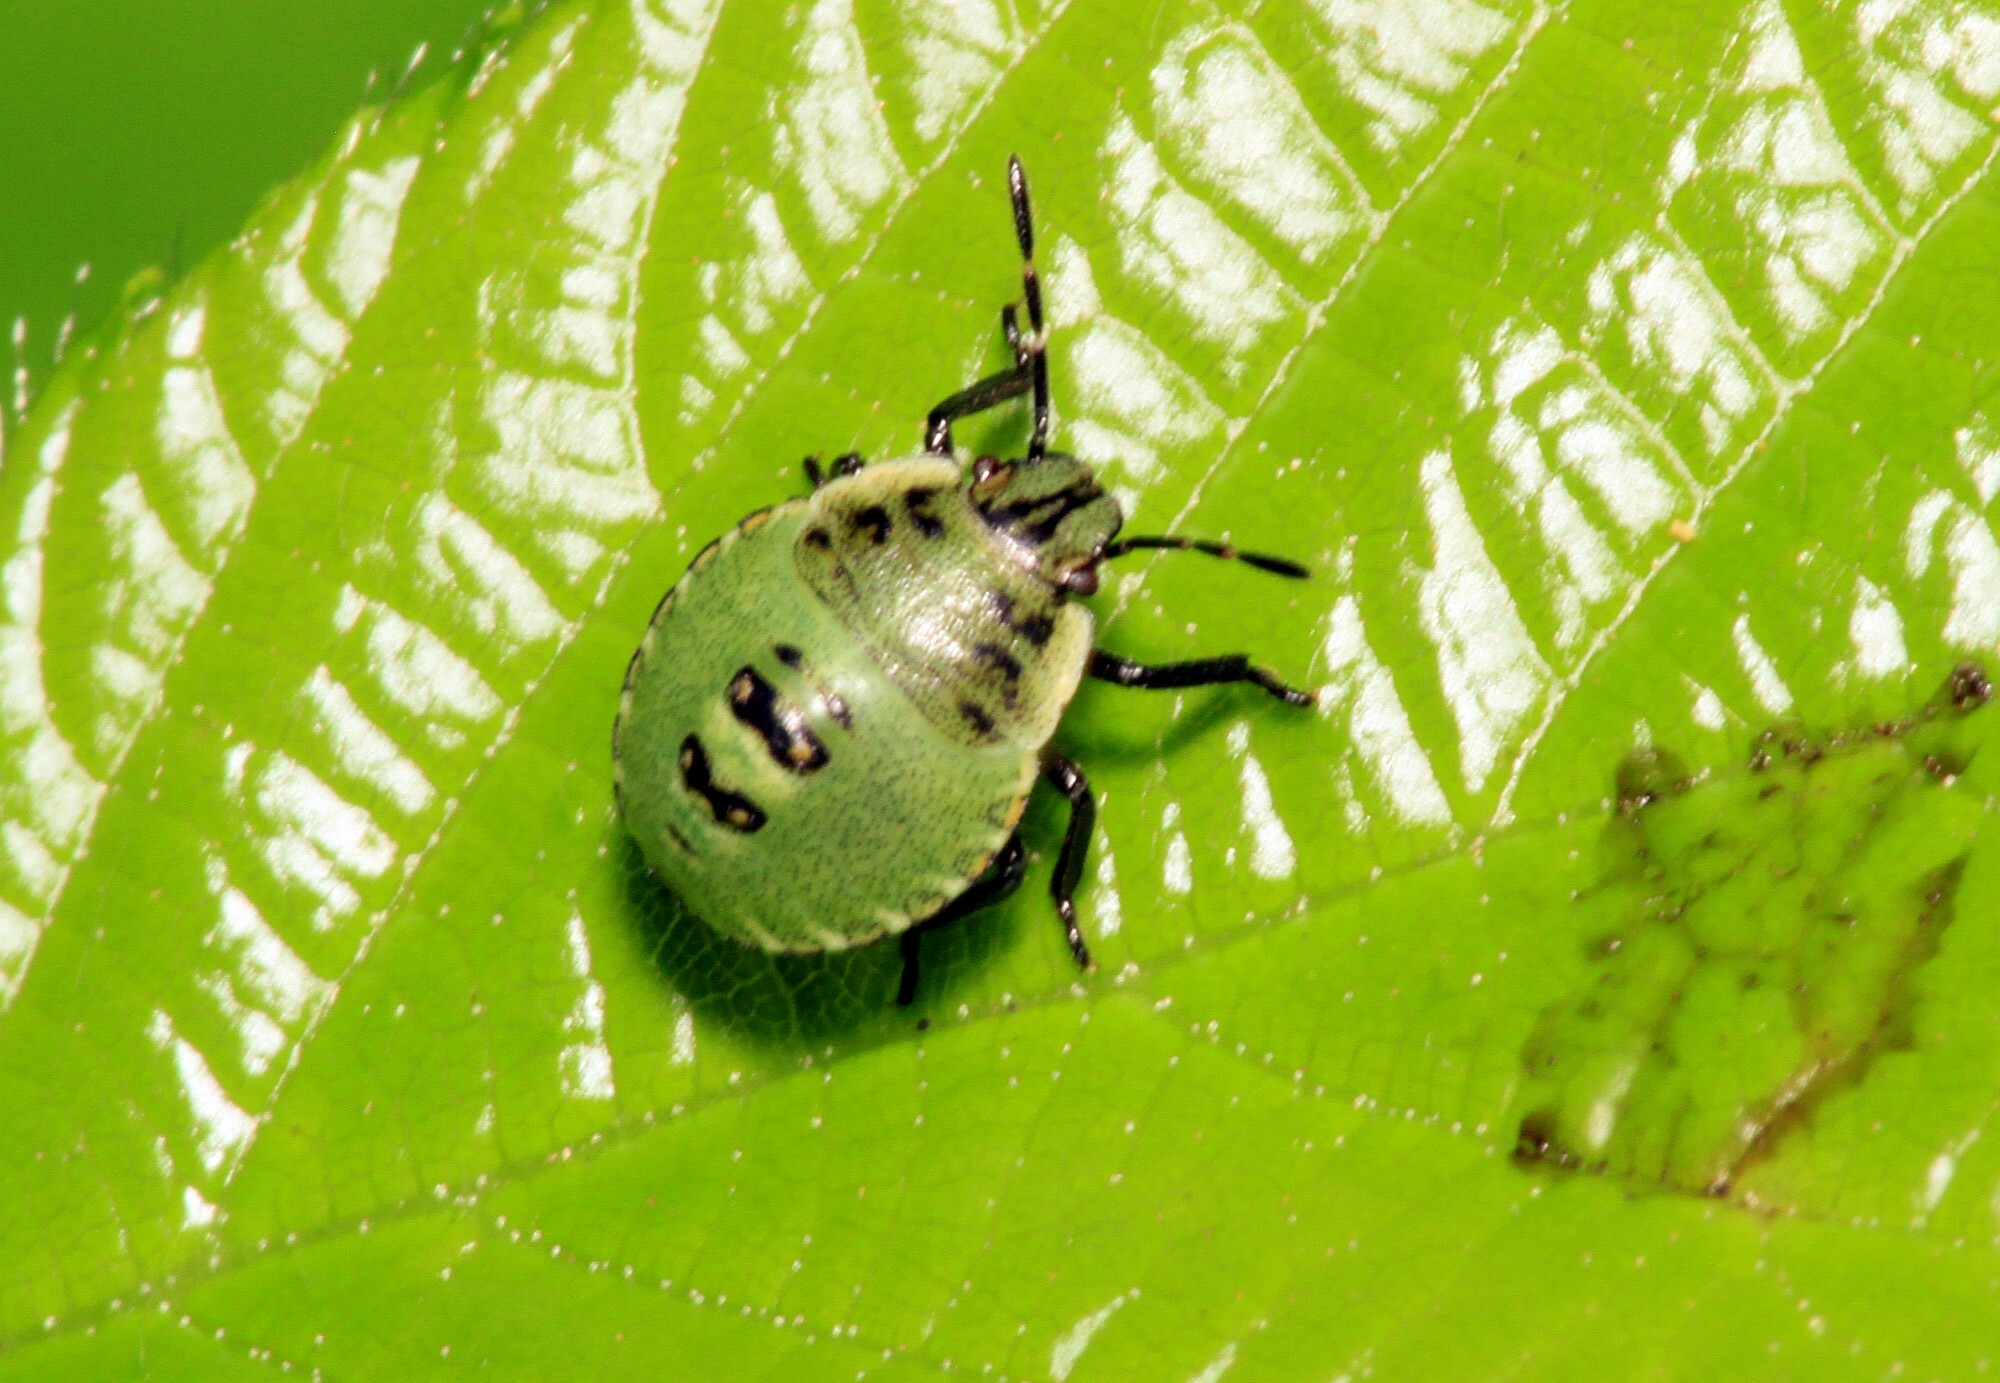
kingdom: Animalia
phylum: Arthropoda
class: Insecta
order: Hemiptera
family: Pentatomidae
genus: Palomena
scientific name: Palomena prasina
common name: Green shieldbug
